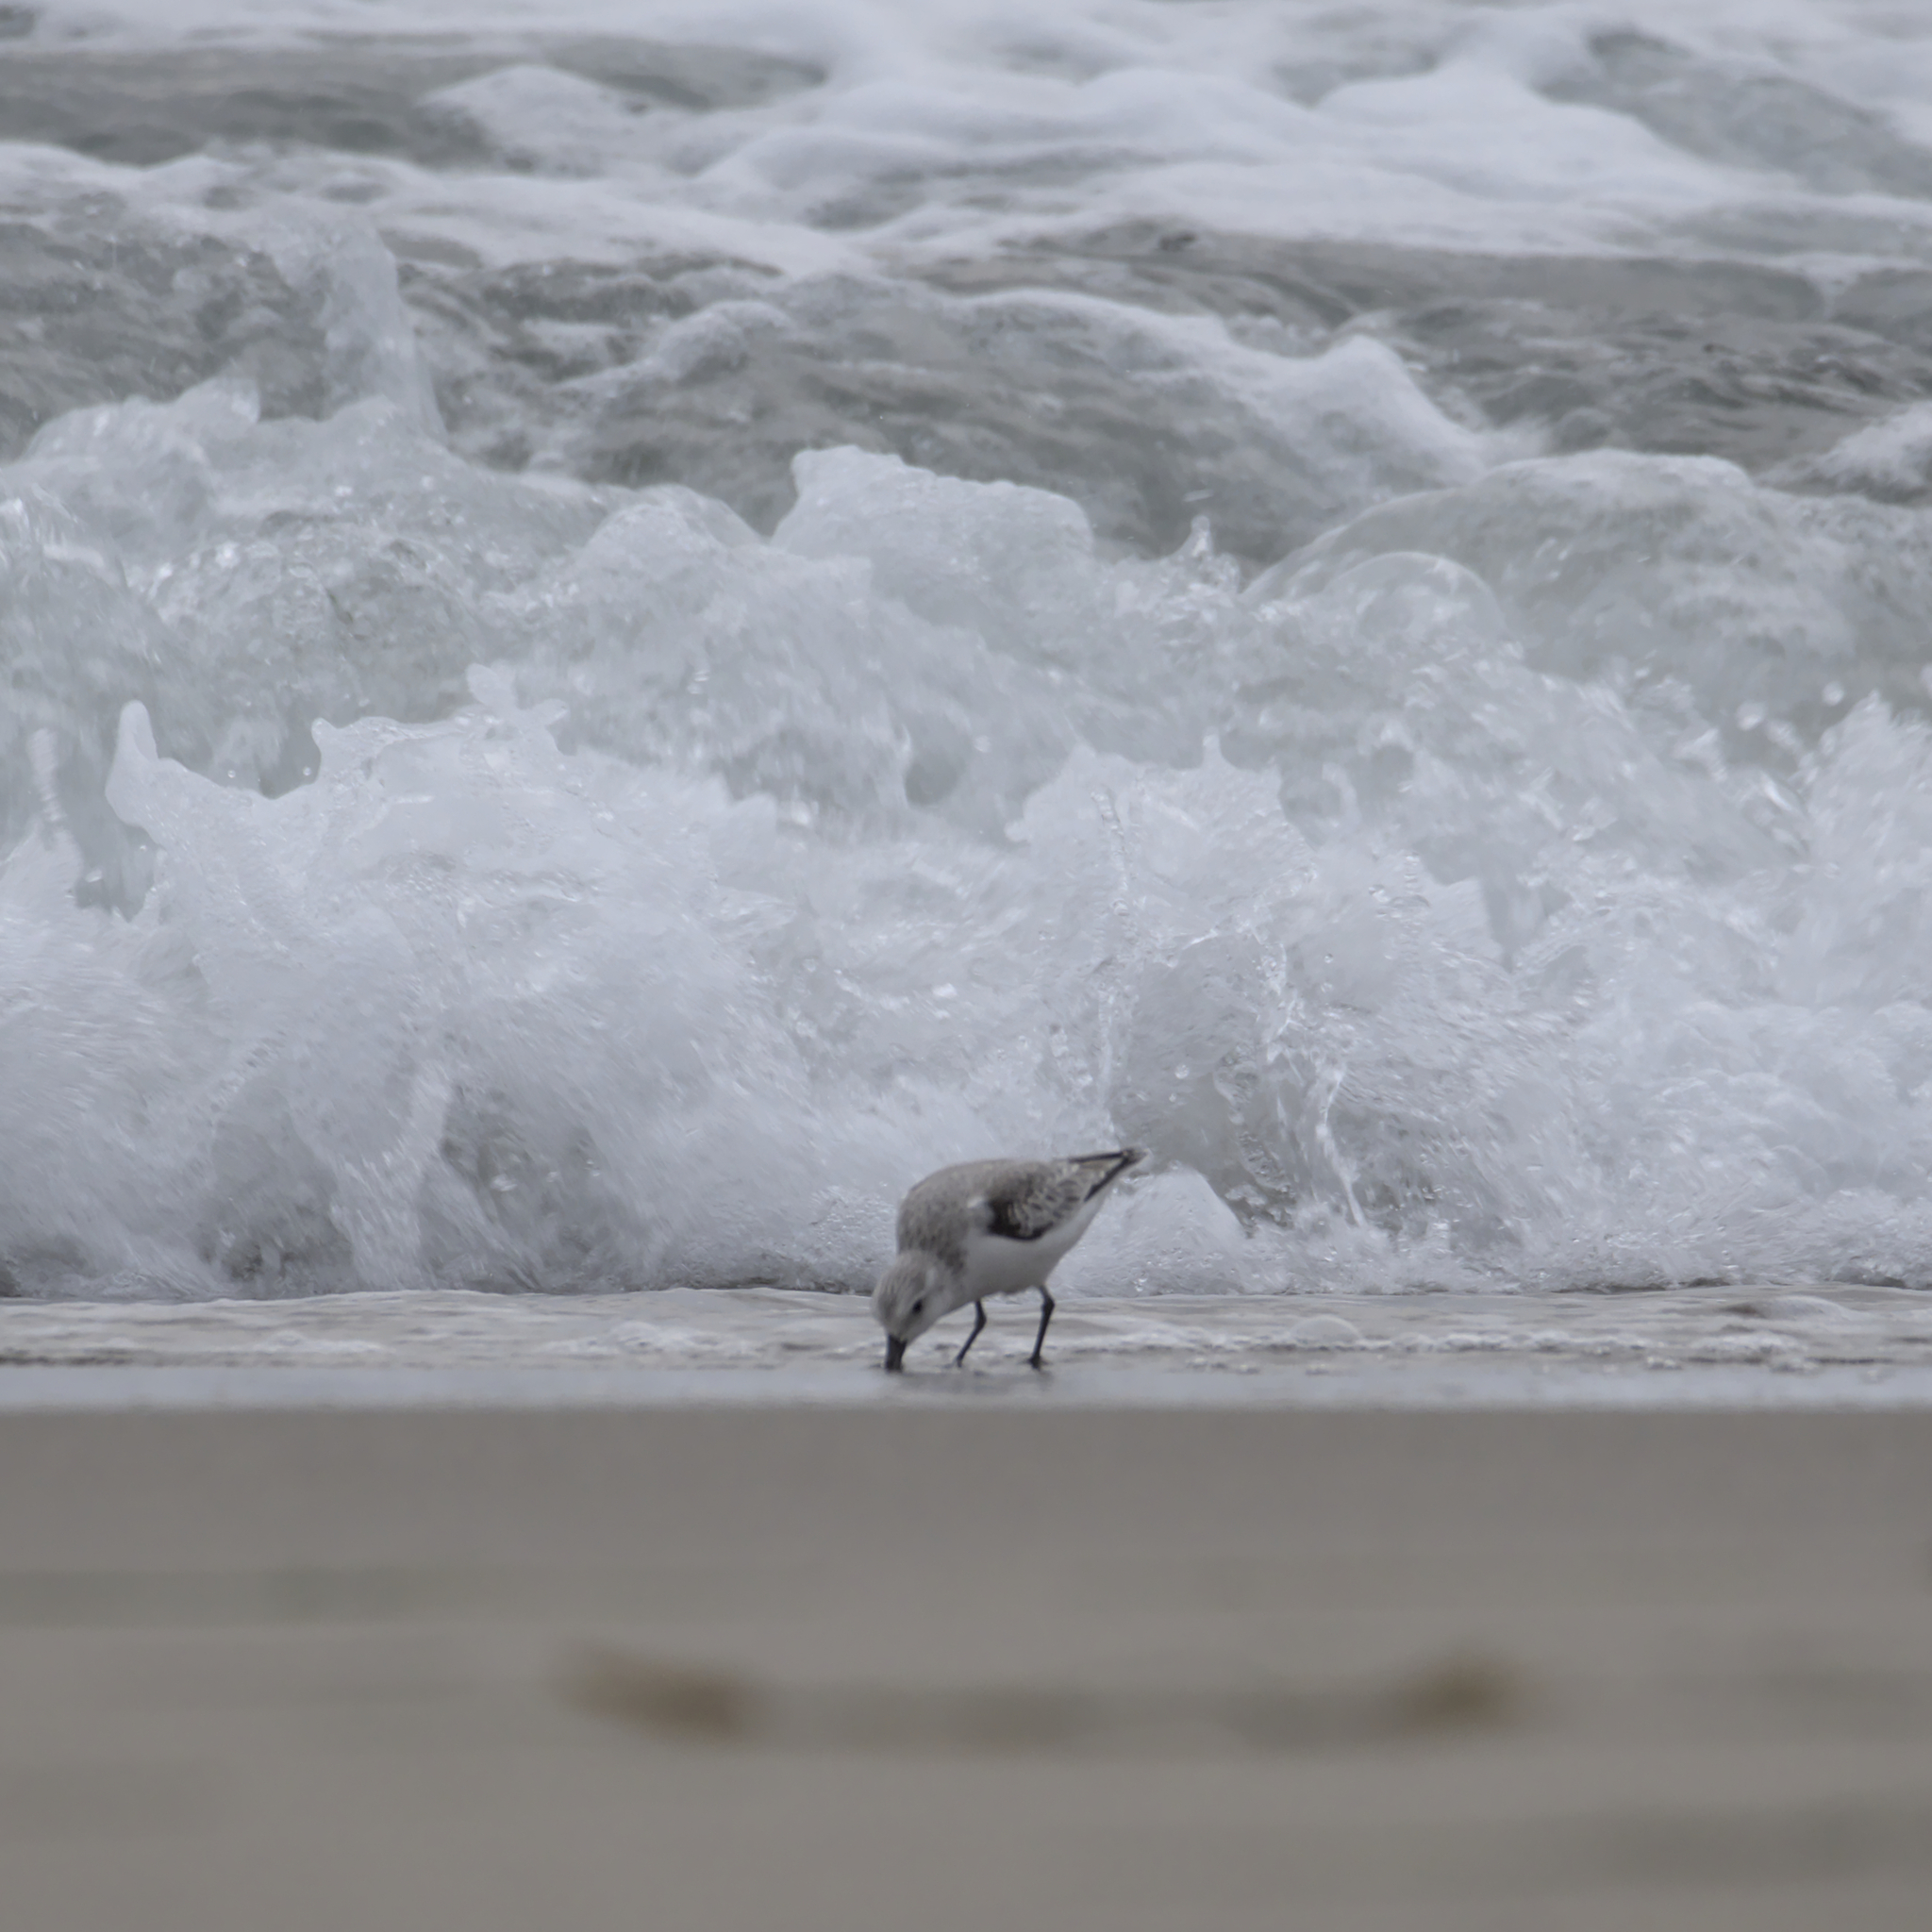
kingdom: Animalia
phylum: Chordata
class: Aves
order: Charadriiformes
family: Scolopacidae
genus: Calidris
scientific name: Calidris alba
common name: Sanderling
